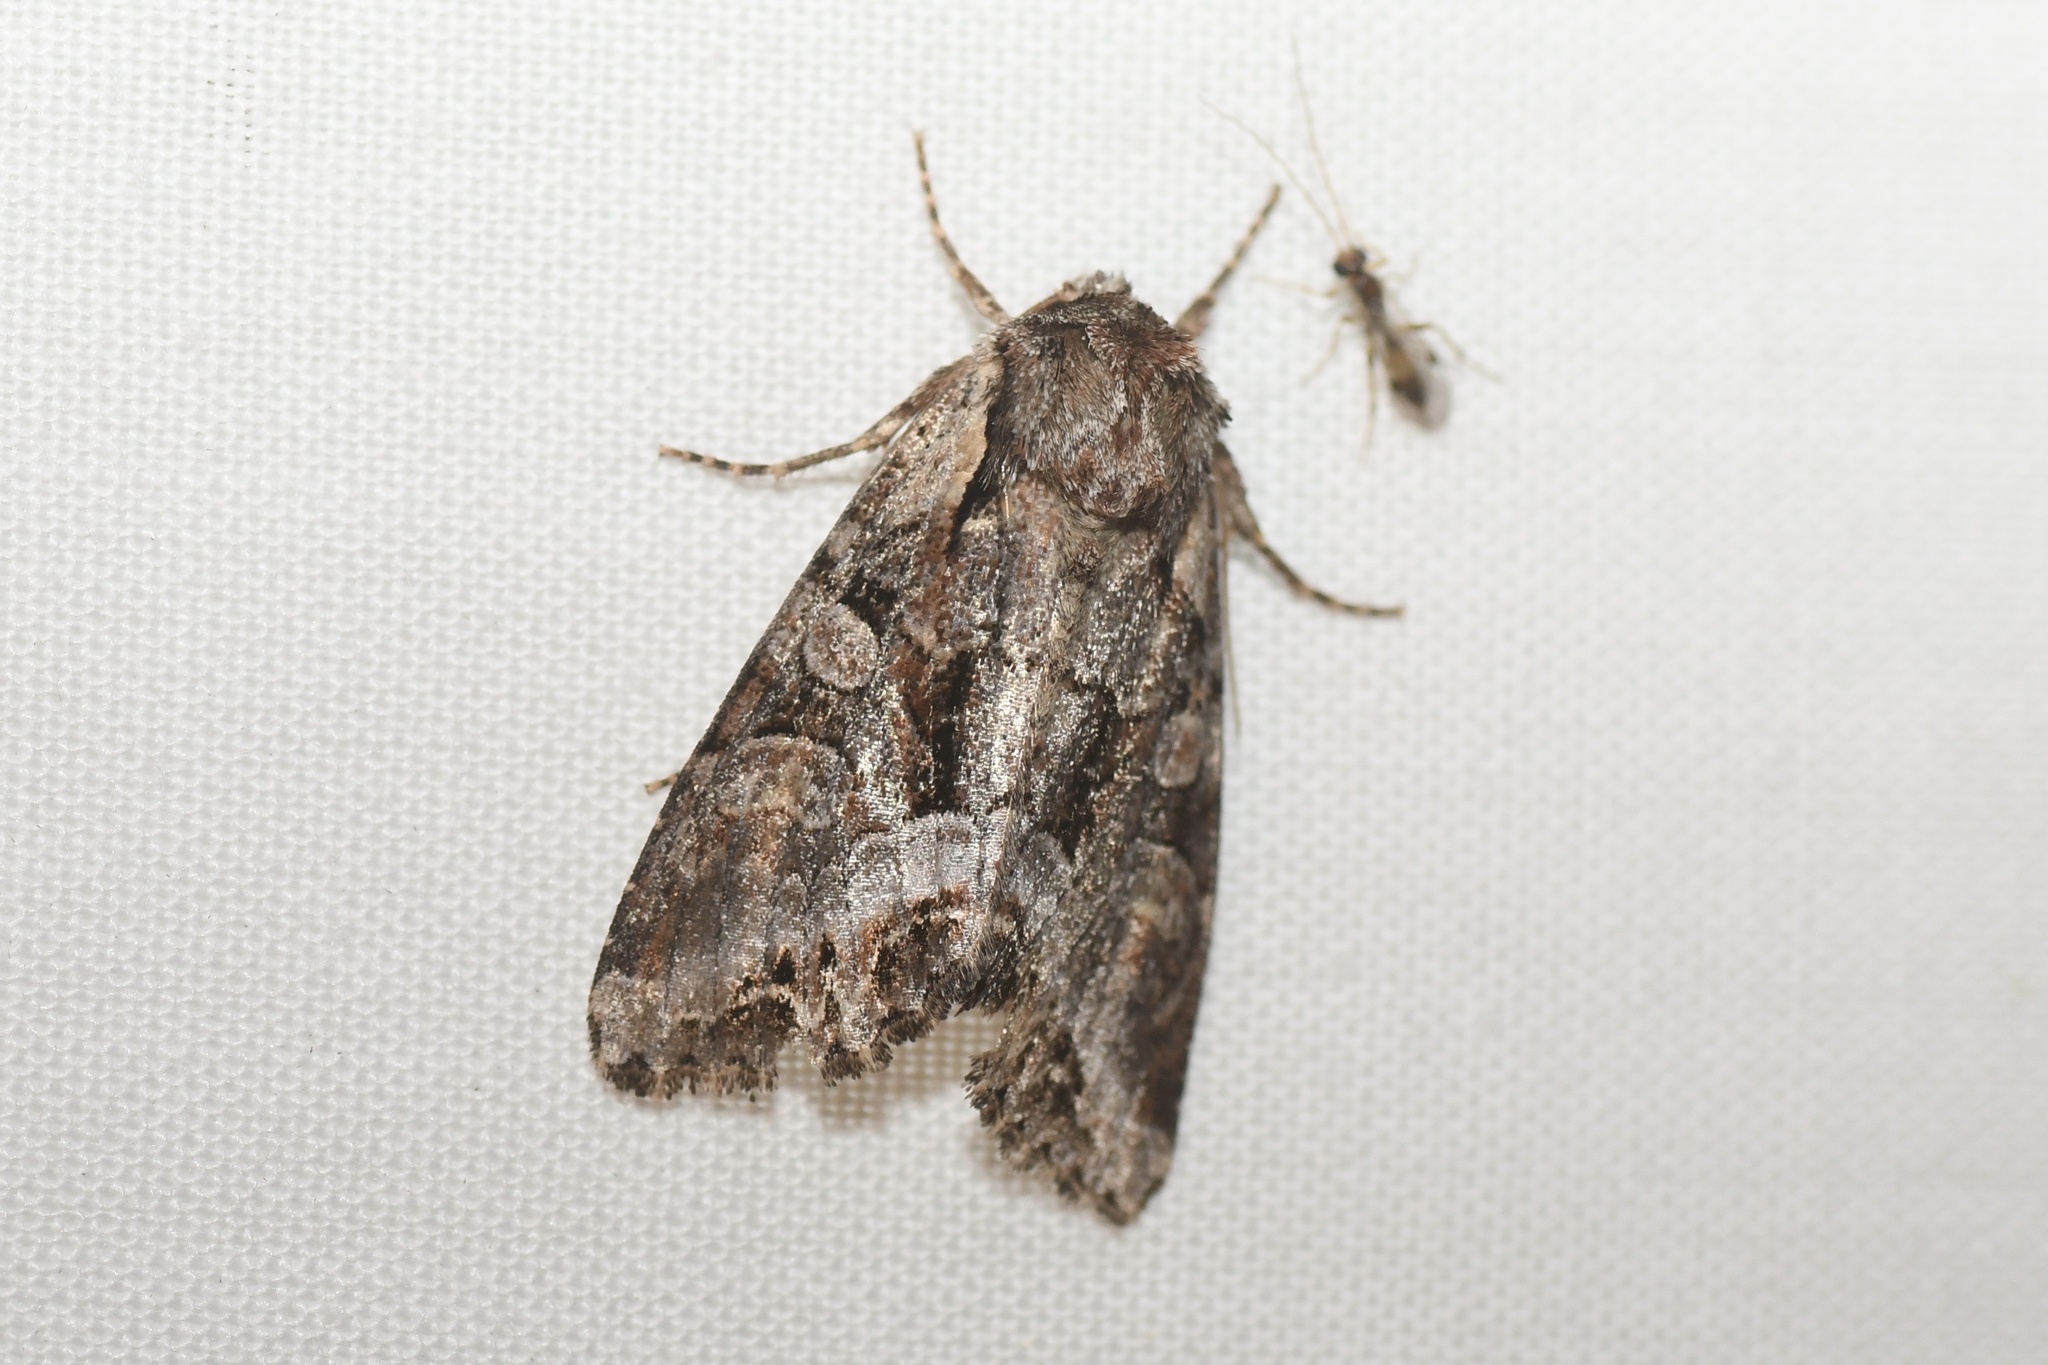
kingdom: Animalia
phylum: Arthropoda
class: Insecta
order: Lepidoptera
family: Noctuidae
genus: Lacanobia
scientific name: Lacanobia grandis
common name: Grand arches moth
